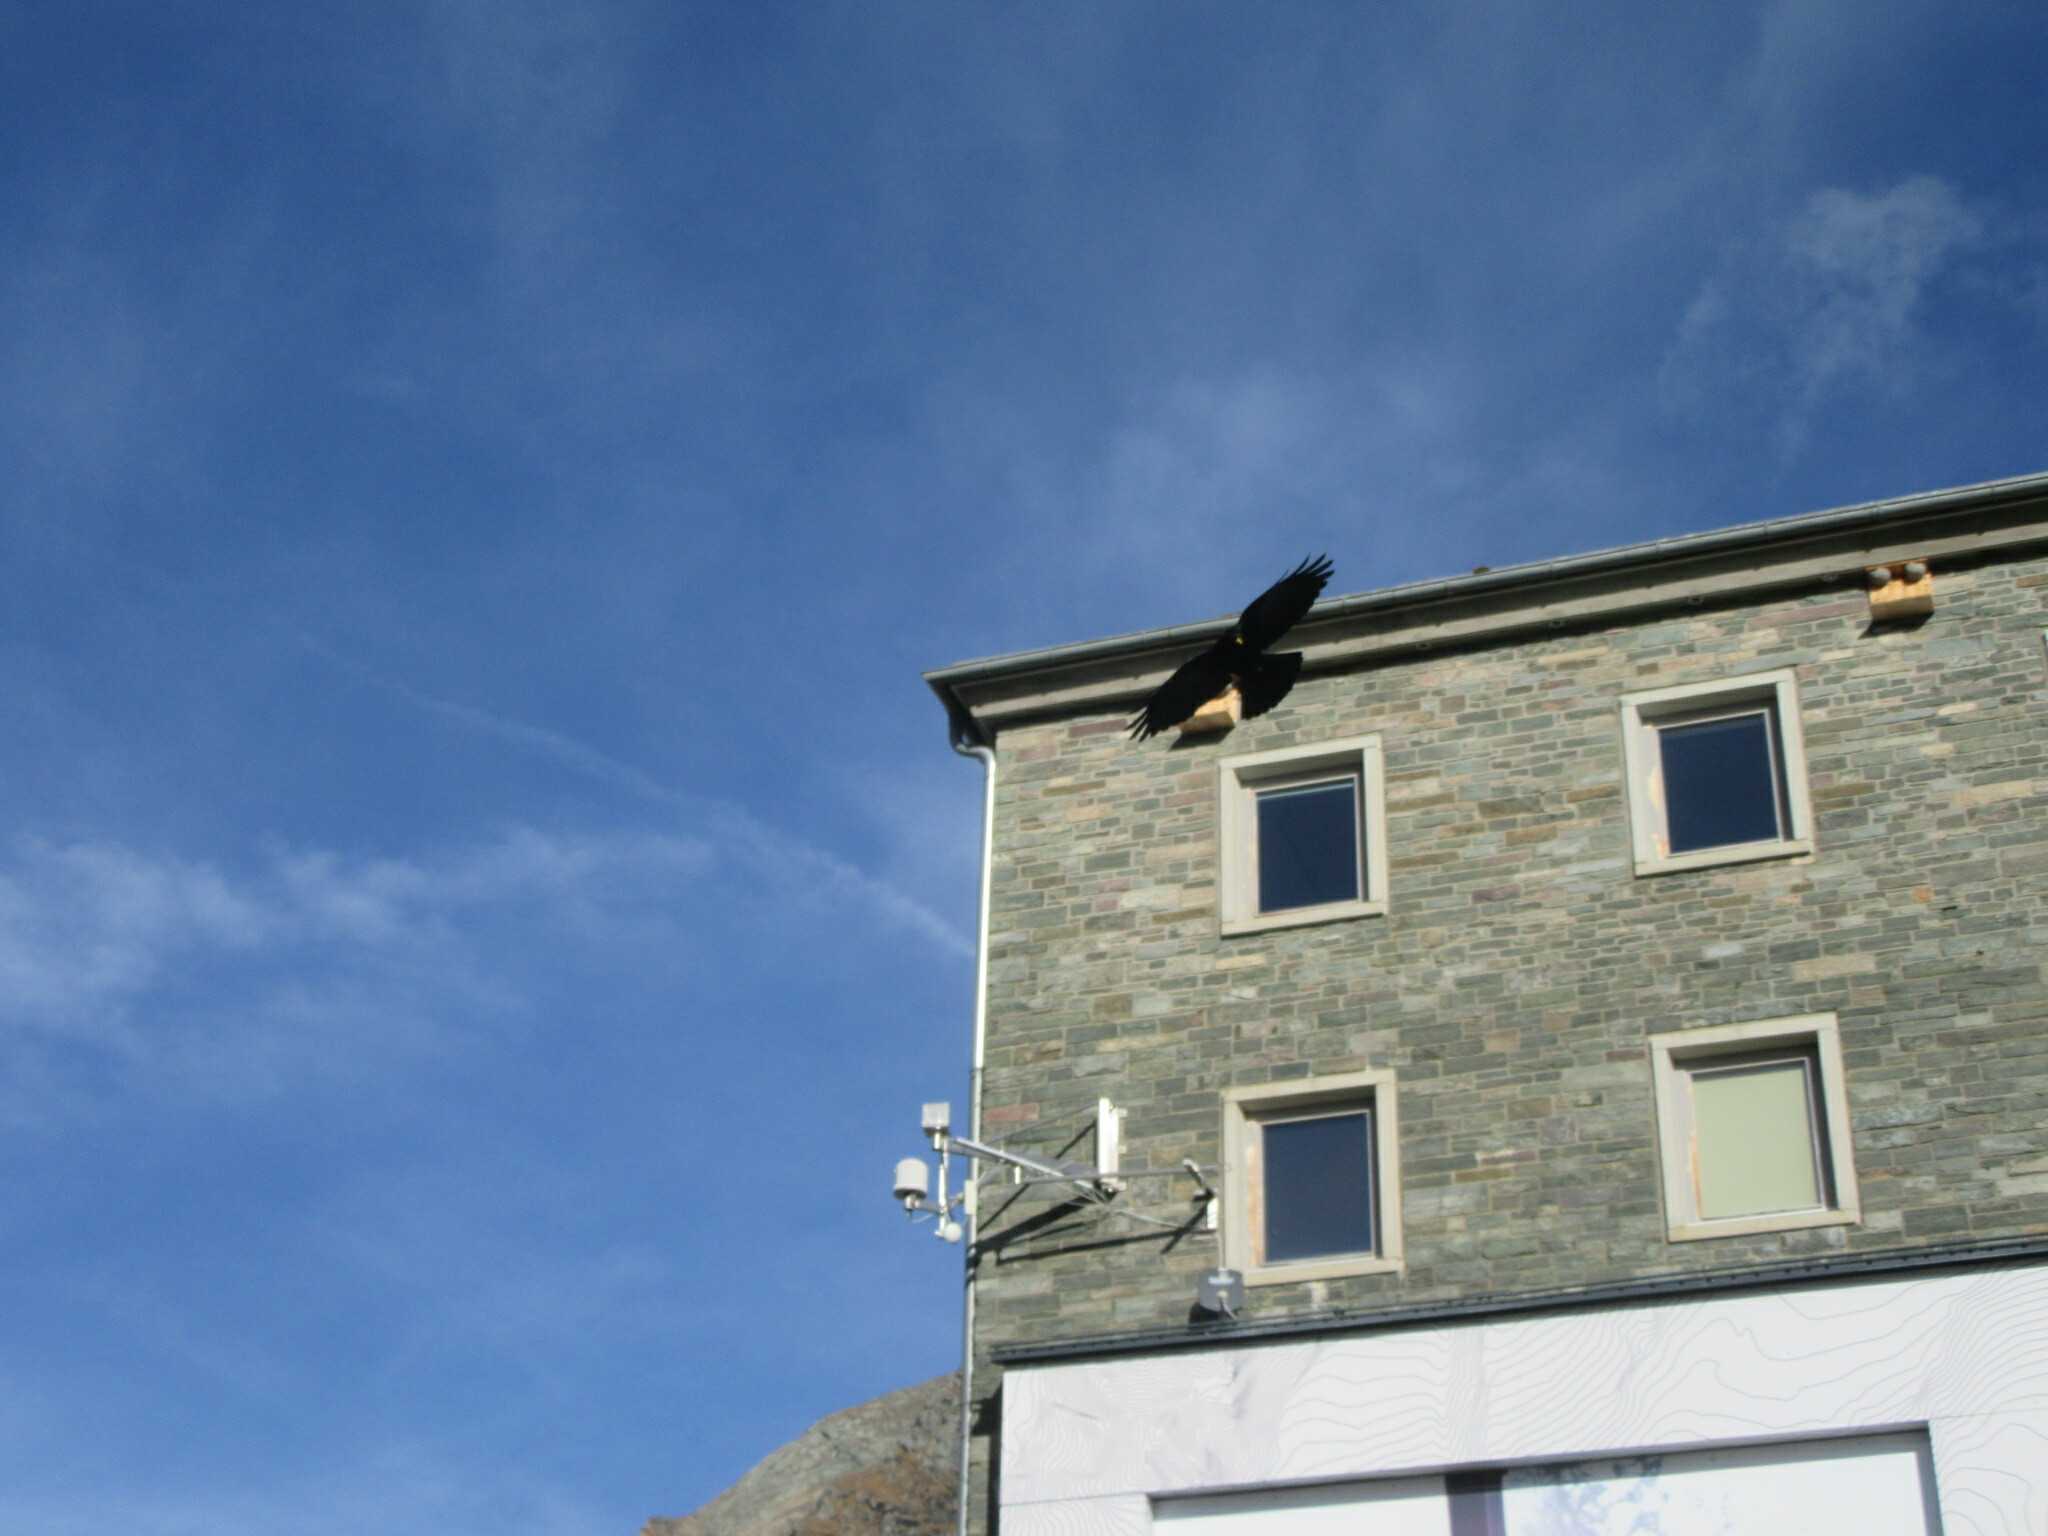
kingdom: Animalia
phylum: Chordata
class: Aves
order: Passeriformes
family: Corvidae
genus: Pyrrhocorax
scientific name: Pyrrhocorax graculus
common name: Alpine chough
